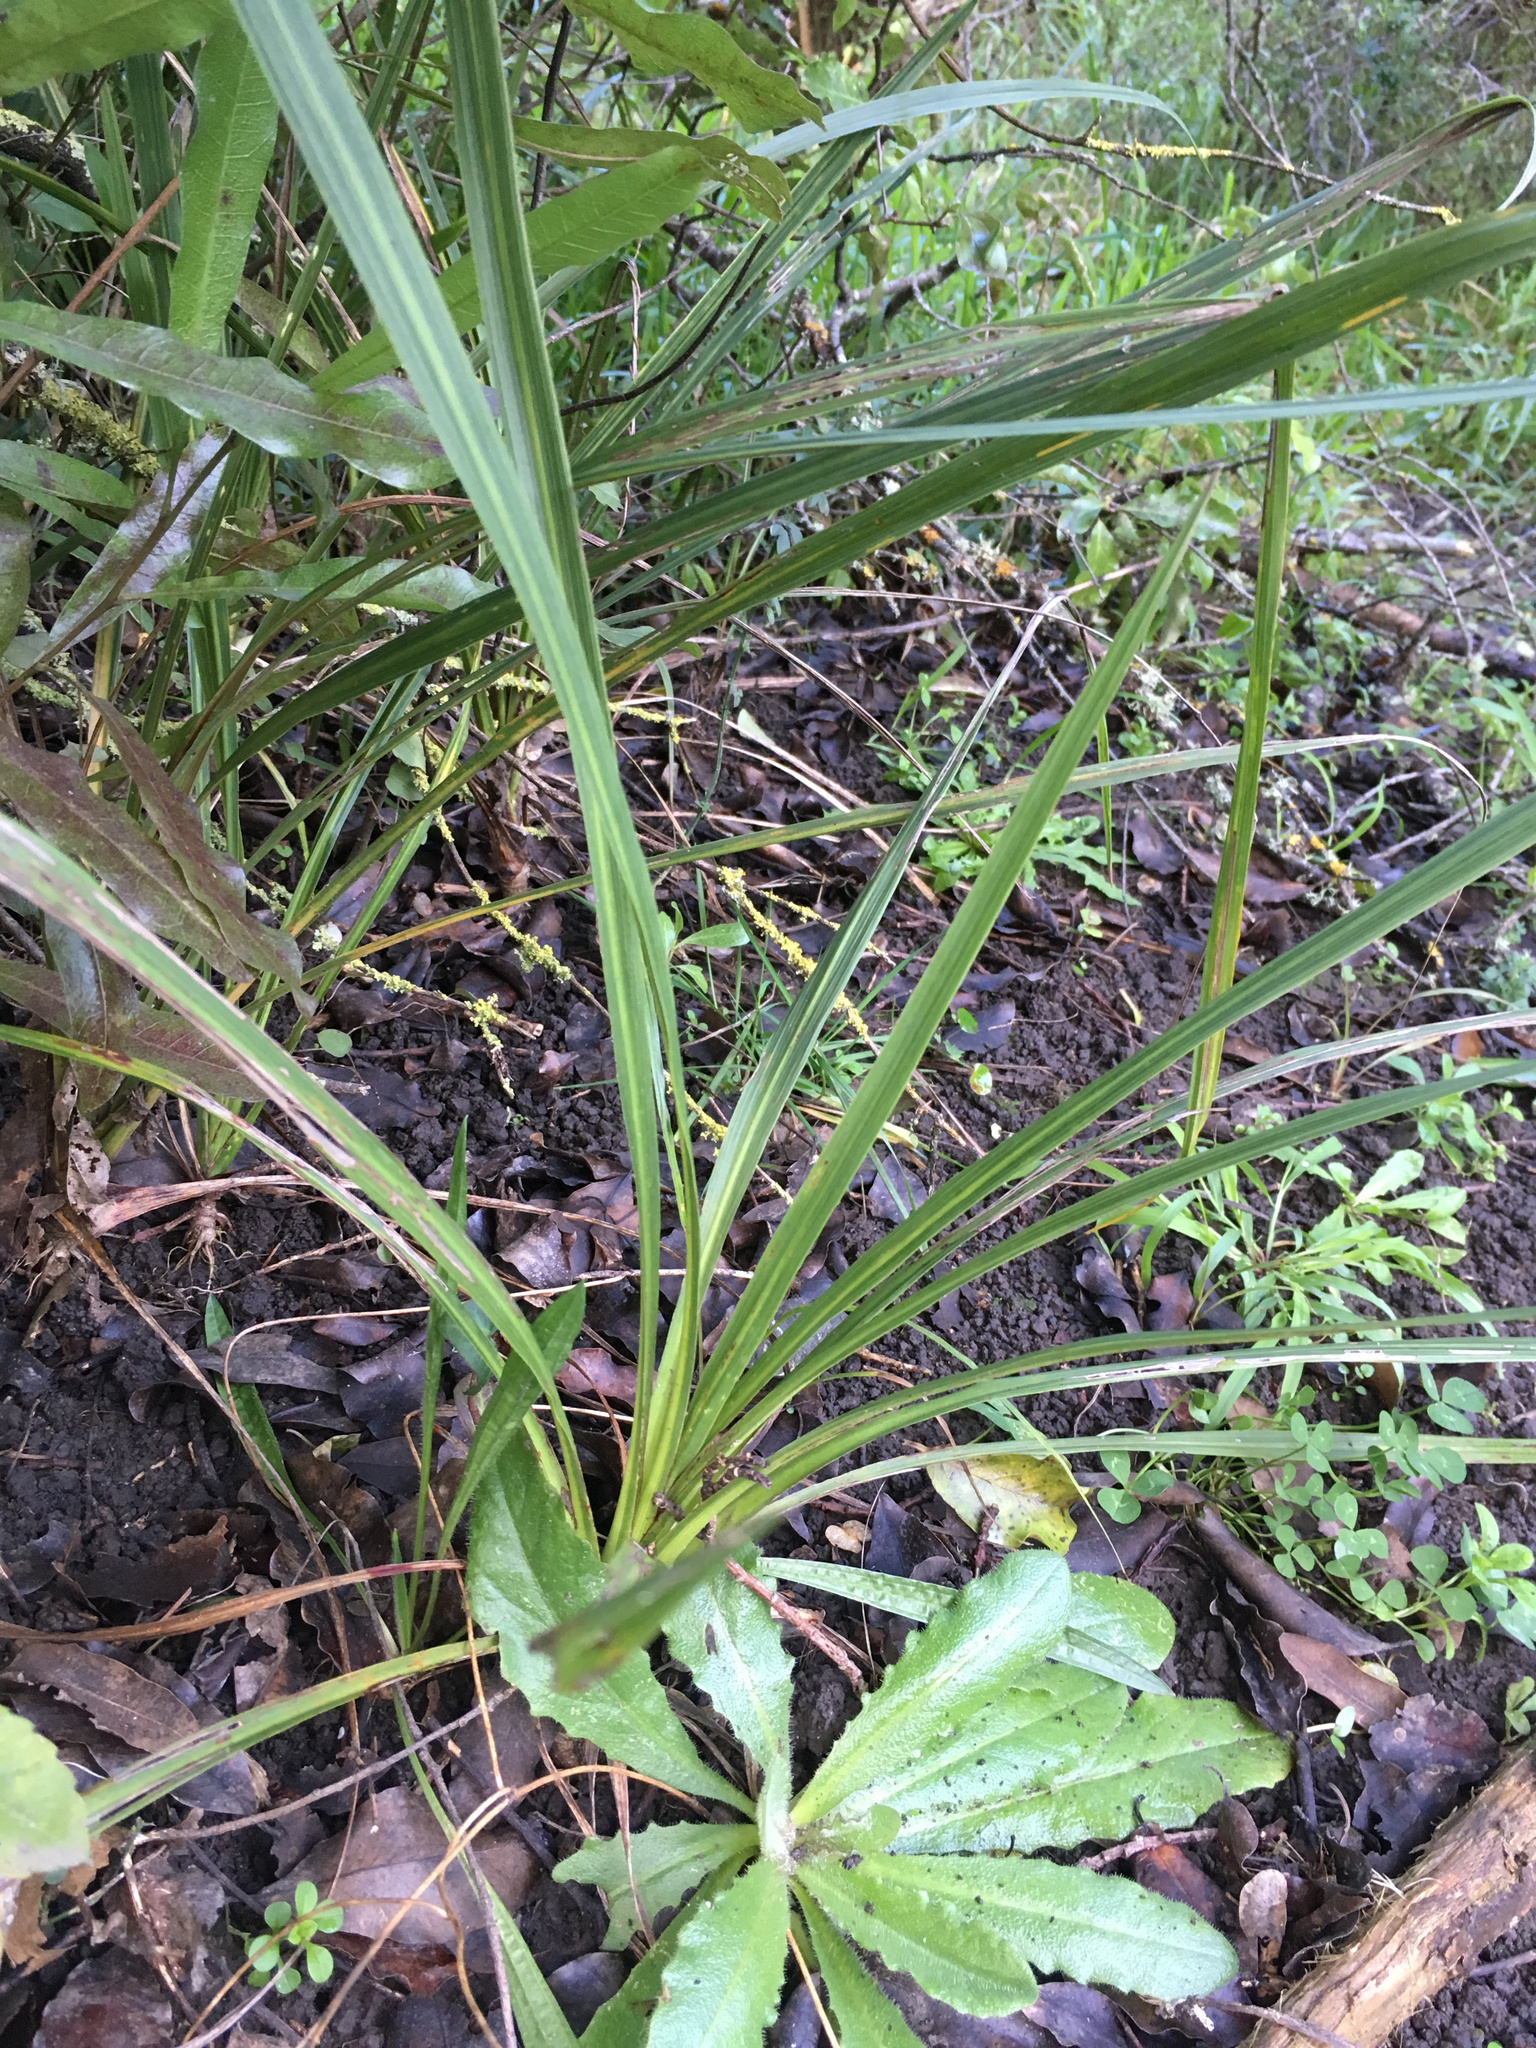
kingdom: Plantae
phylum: Tracheophyta
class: Liliopsida
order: Asparagales
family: Asparagaceae
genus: Cordyline
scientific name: Cordyline australis
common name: Cabbage-palm
